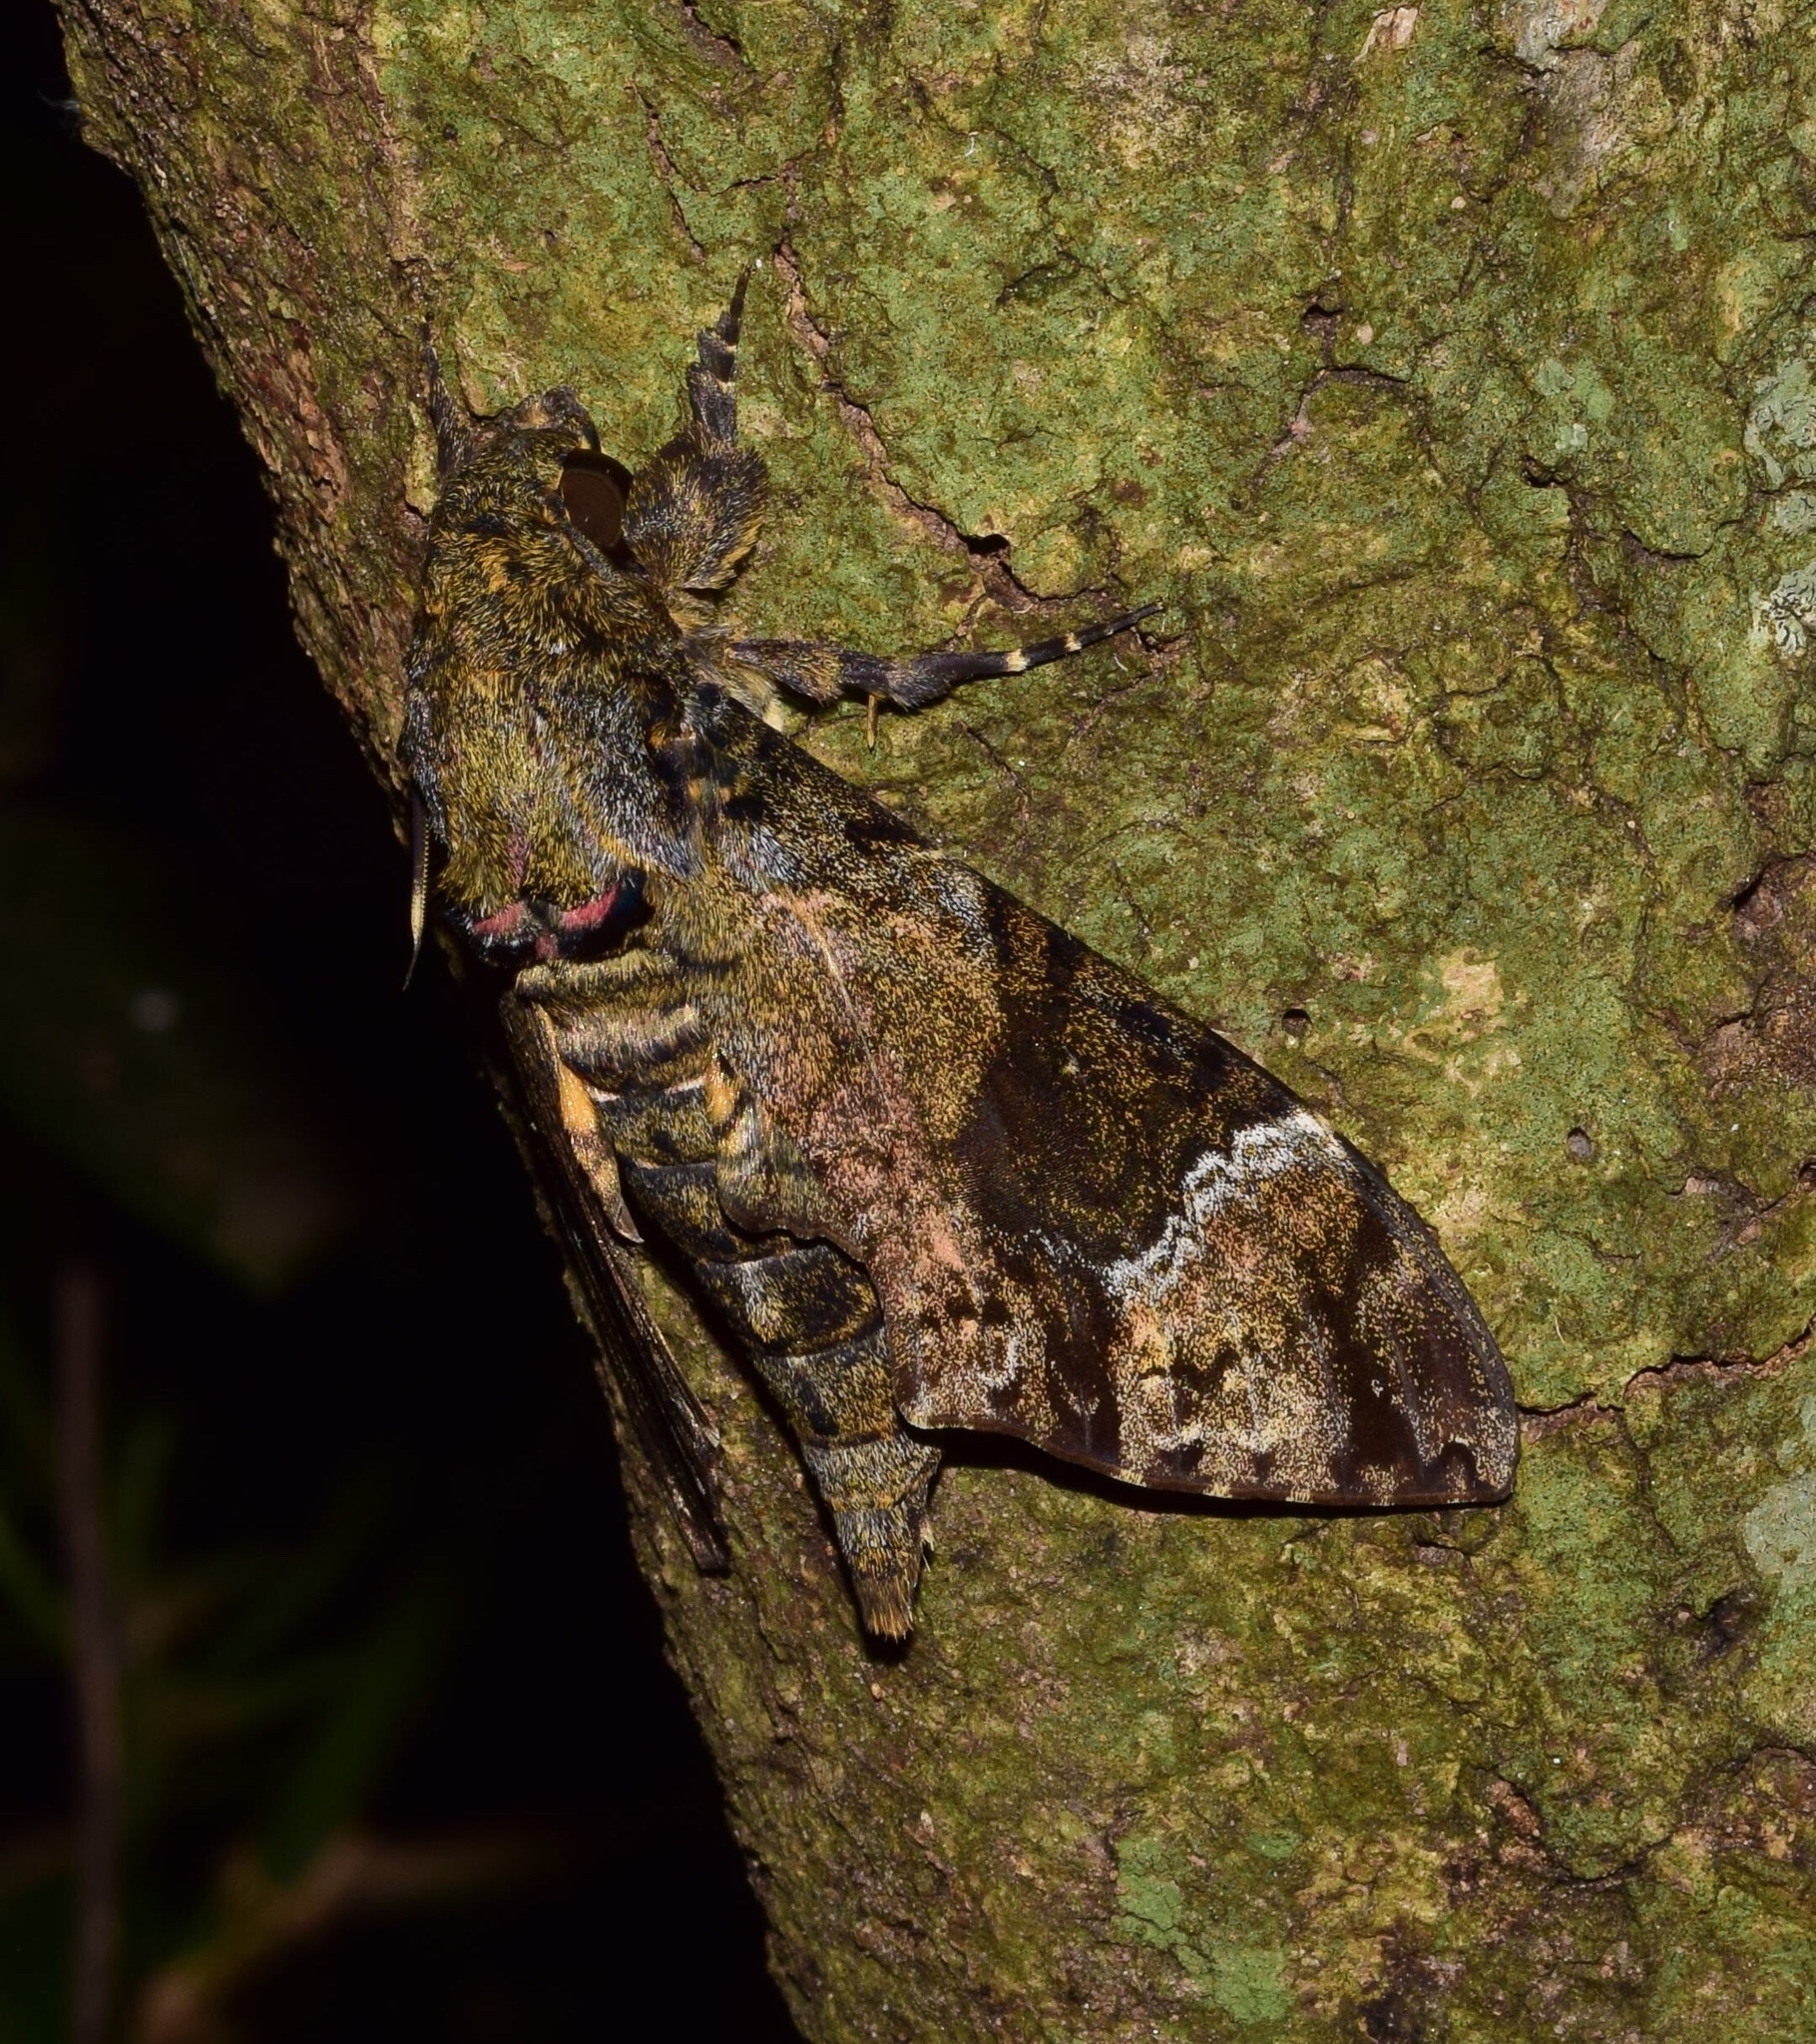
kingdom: Animalia
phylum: Arthropoda
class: Insecta
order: Lepidoptera
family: Sphingidae
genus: Coelonia
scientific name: Coelonia fulvinotata
